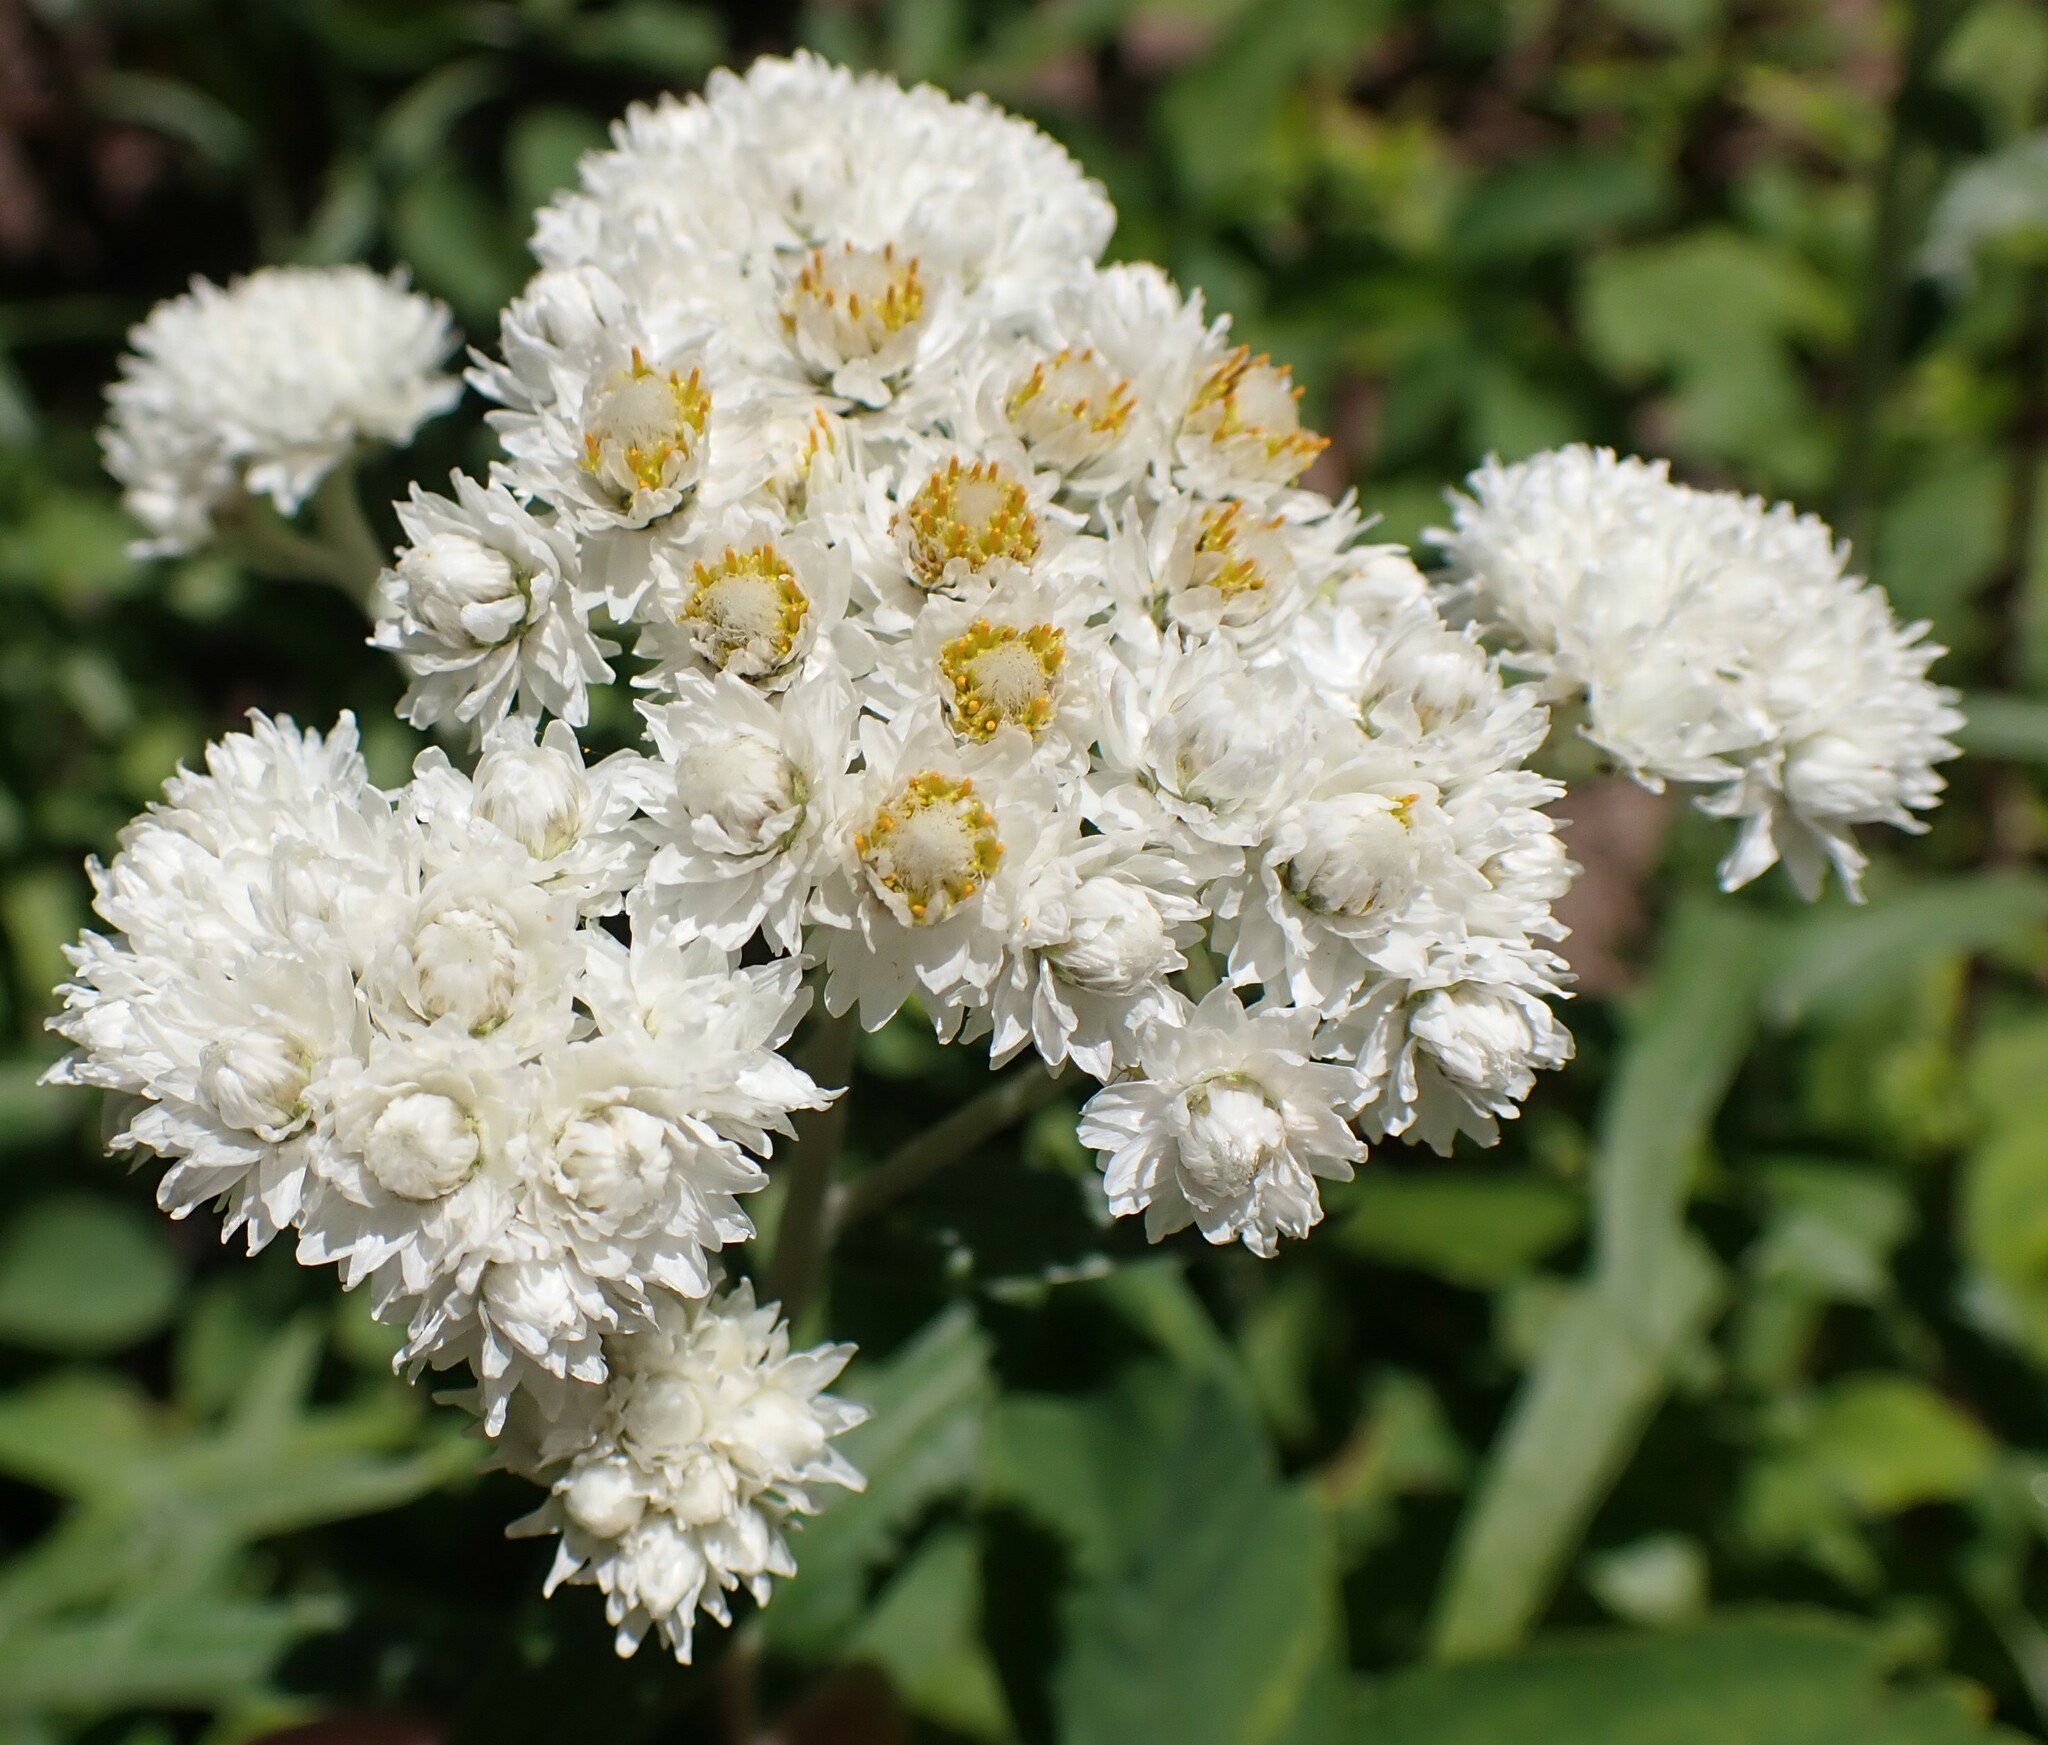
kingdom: Plantae
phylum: Tracheophyta
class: Magnoliopsida
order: Asterales
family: Asteraceae
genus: Anaphalis
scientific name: Anaphalis margaritacea
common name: Pearly everlasting
